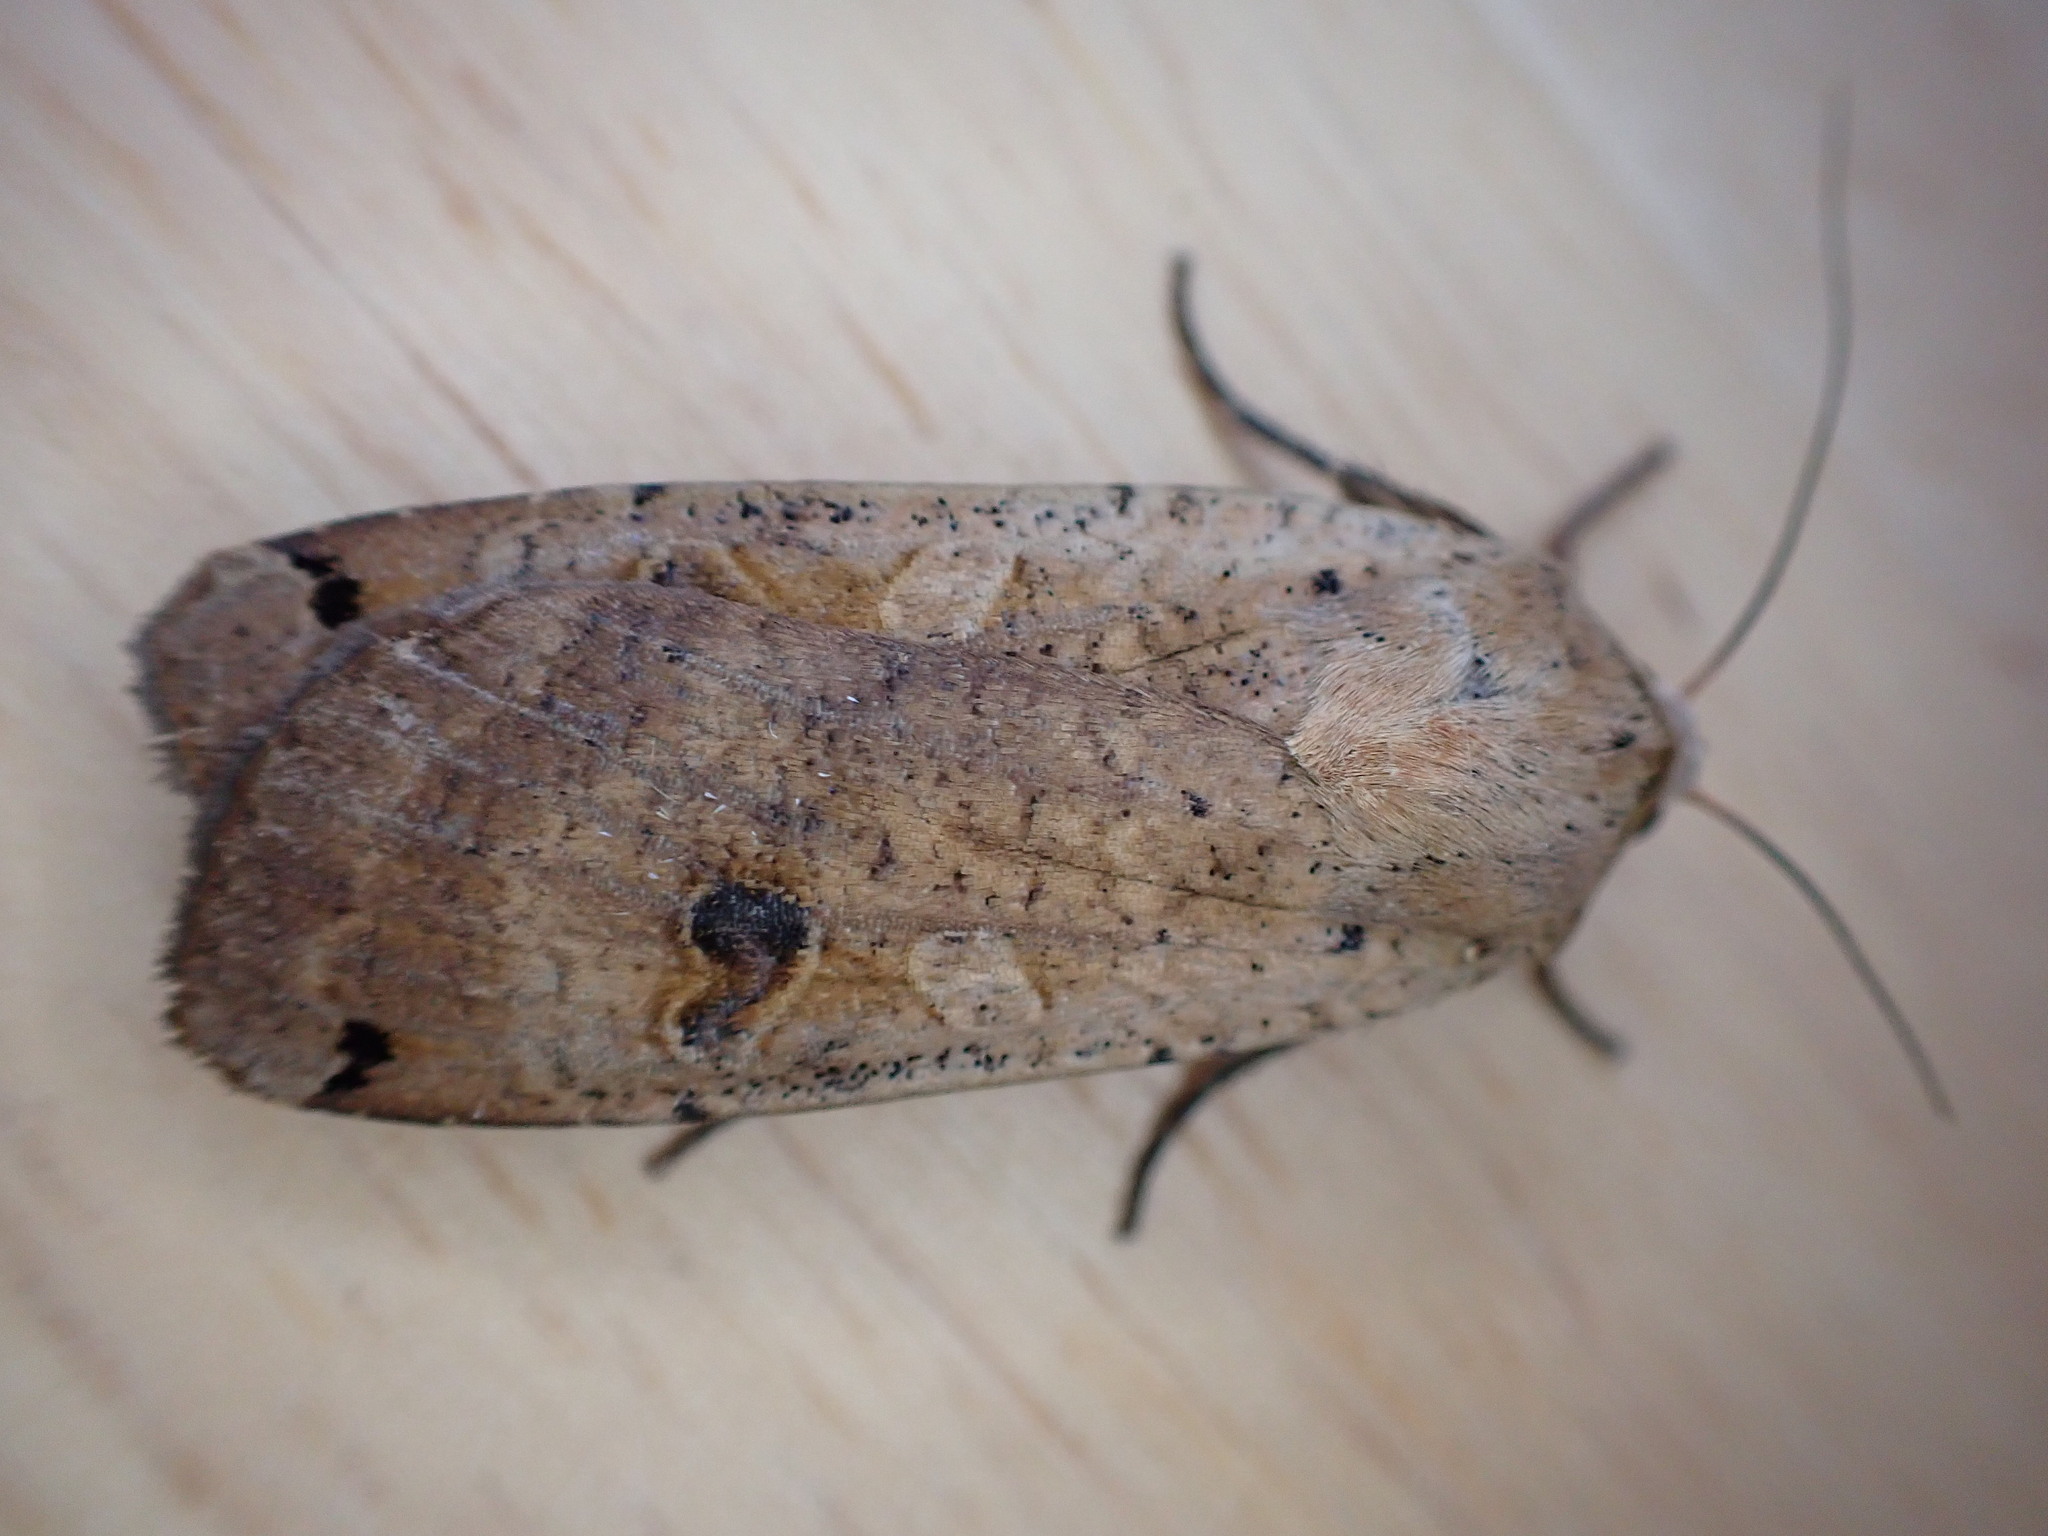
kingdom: Animalia
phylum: Arthropoda
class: Insecta
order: Lepidoptera
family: Noctuidae
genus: Noctua
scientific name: Noctua pronuba
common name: Large yellow underwing
